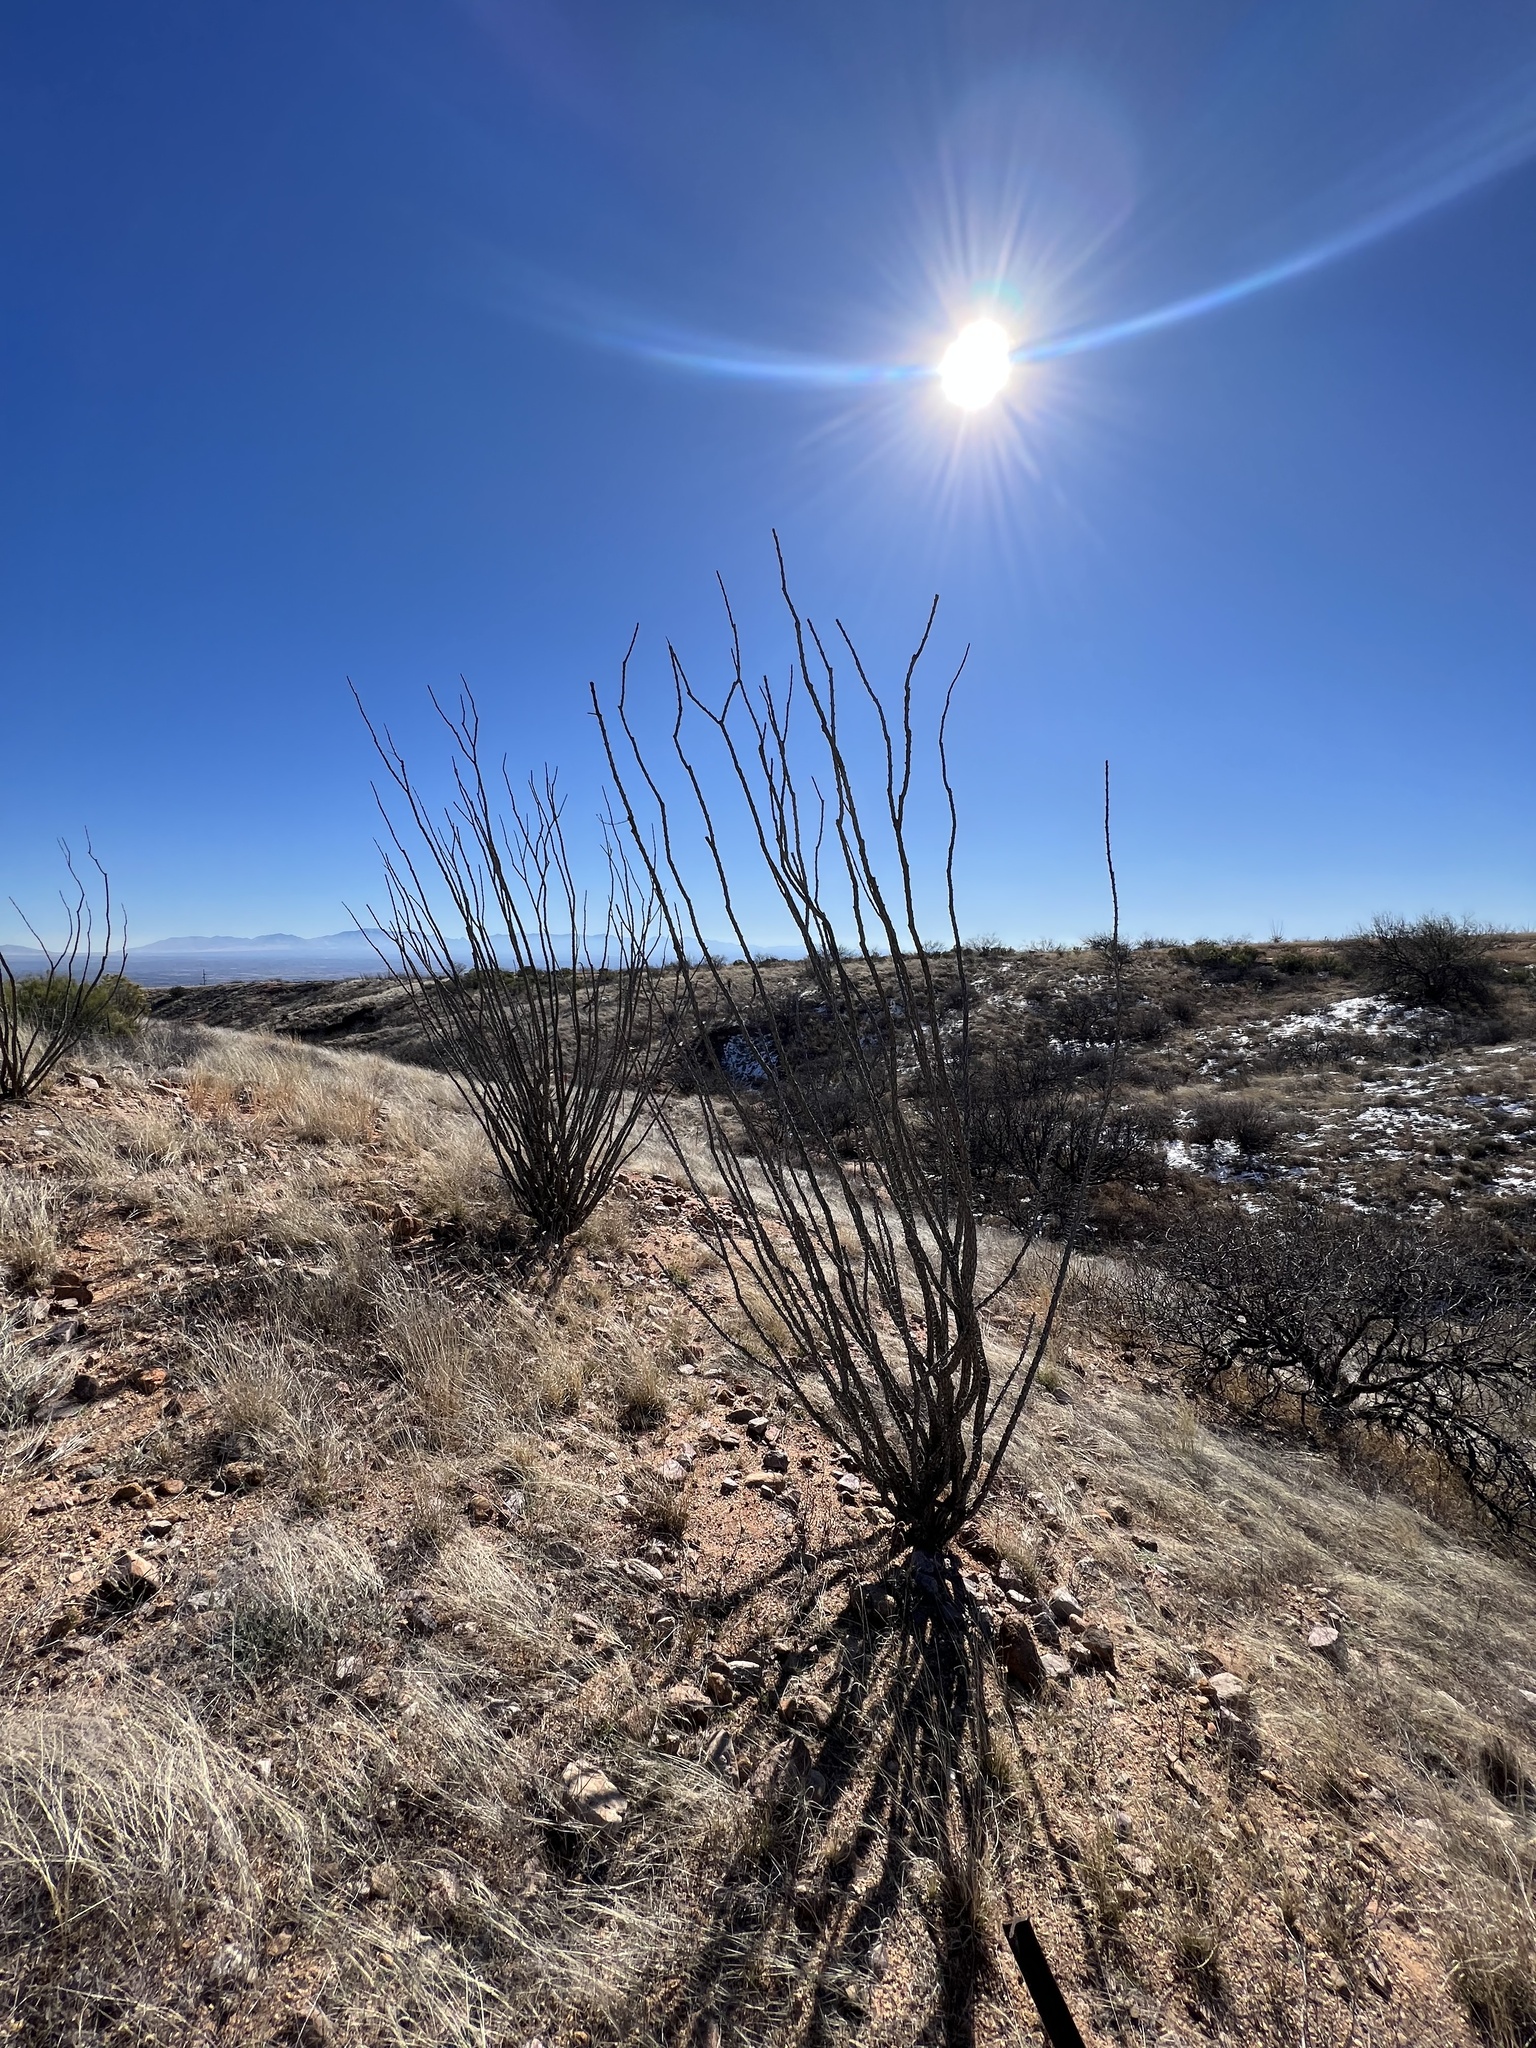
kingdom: Plantae
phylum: Tracheophyta
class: Magnoliopsida
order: Ericales
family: Fouquieriaceae
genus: Fouquieria
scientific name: Fouquieria splendens
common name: Vine-cactus
